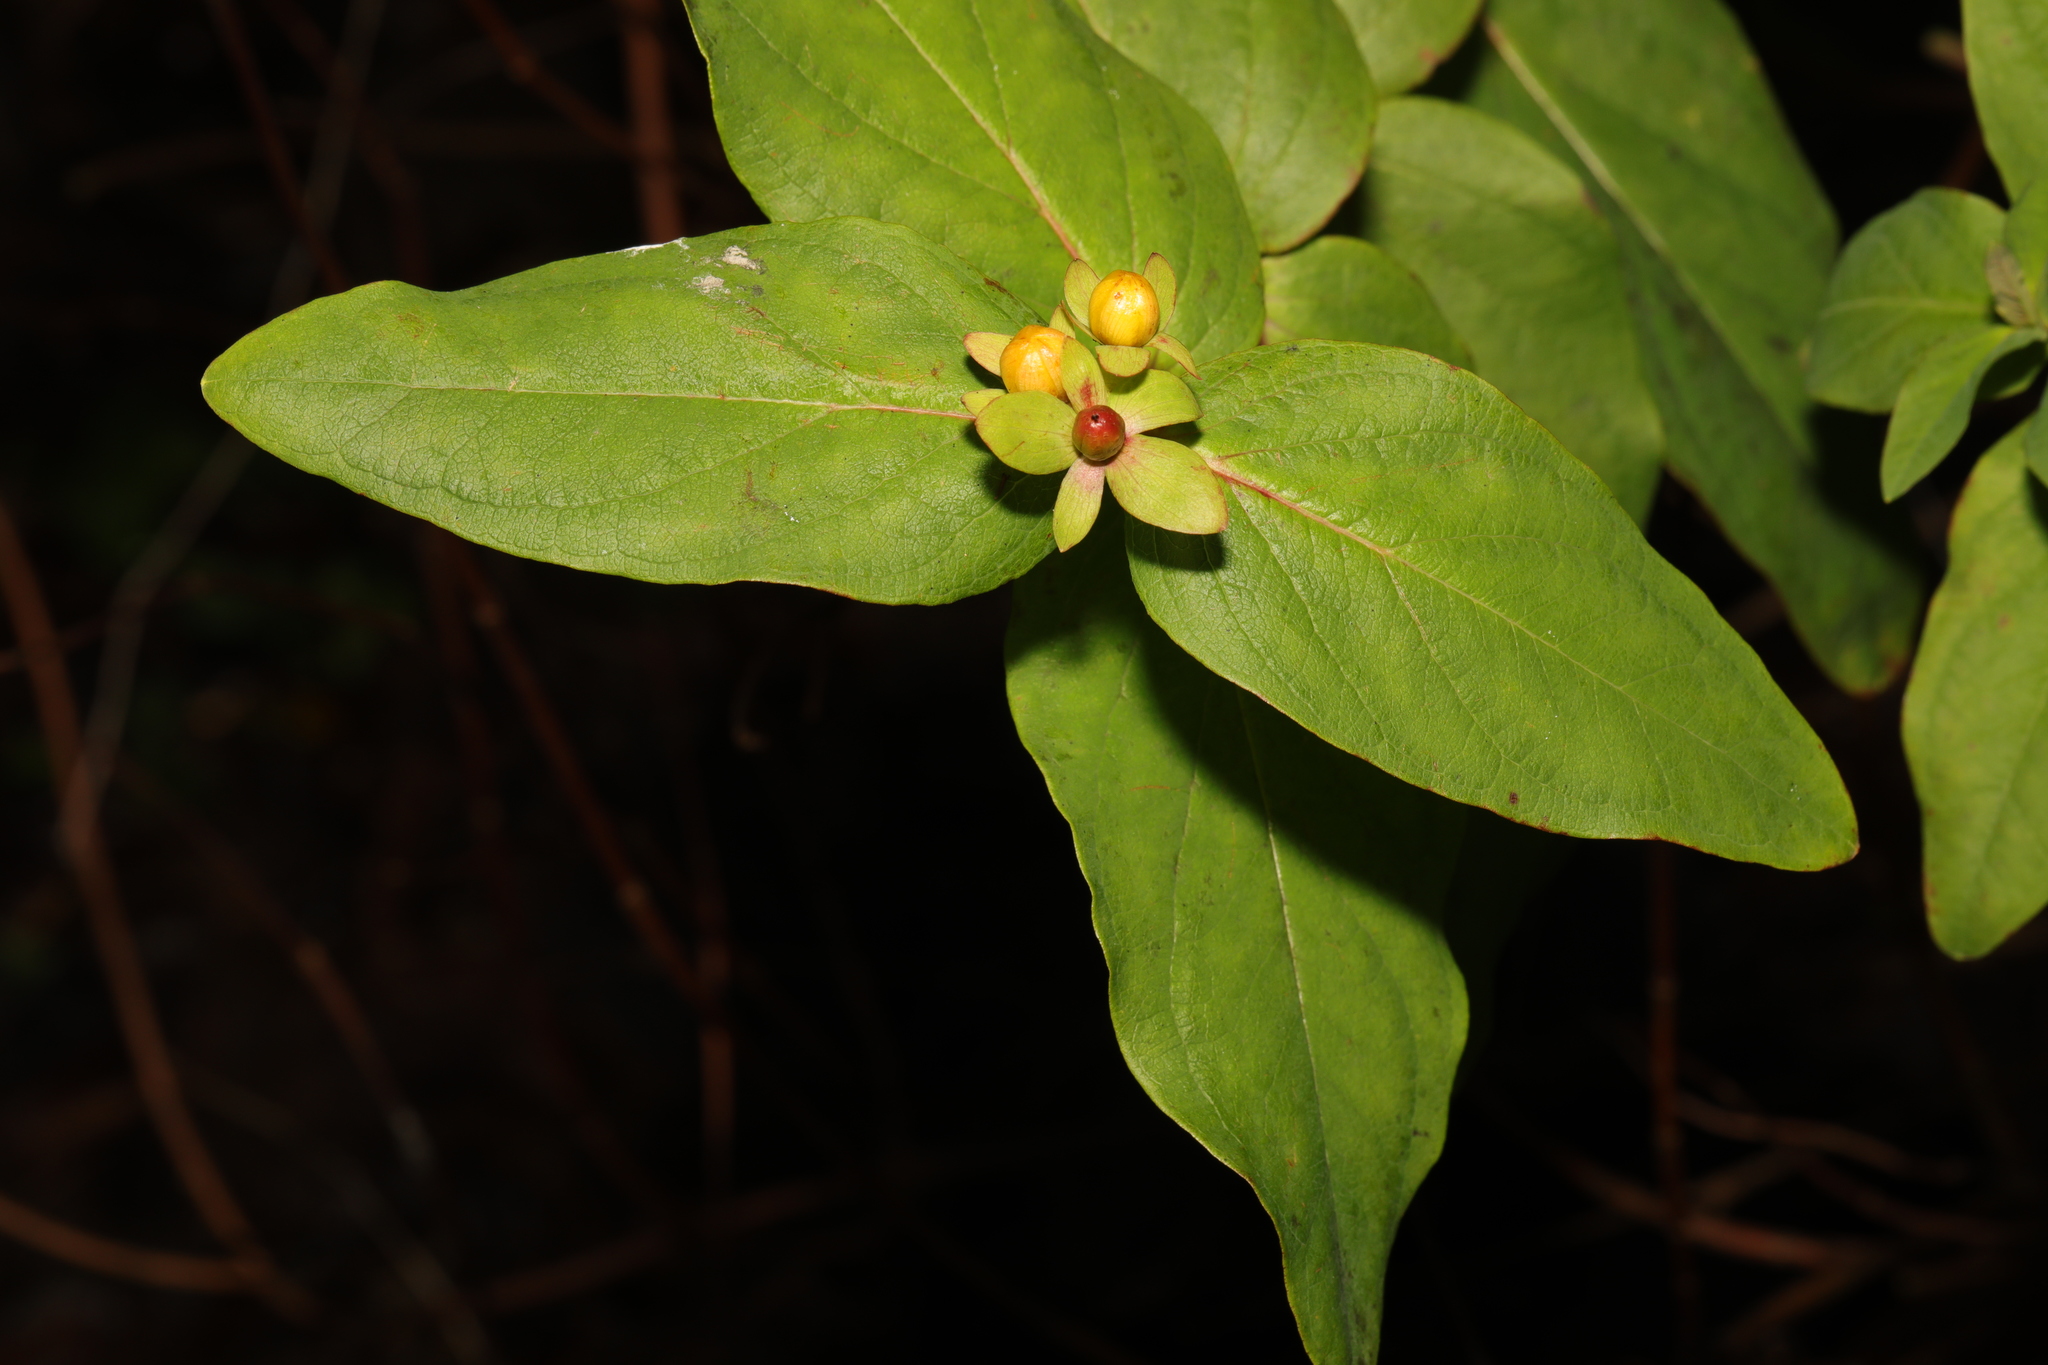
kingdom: Plantae
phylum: Tracheophyta
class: Magnoliopsida
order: Malpighiales
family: Hypericaceae
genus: Hypericum
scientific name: Hypericum androsaemum
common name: Sweet-amber
